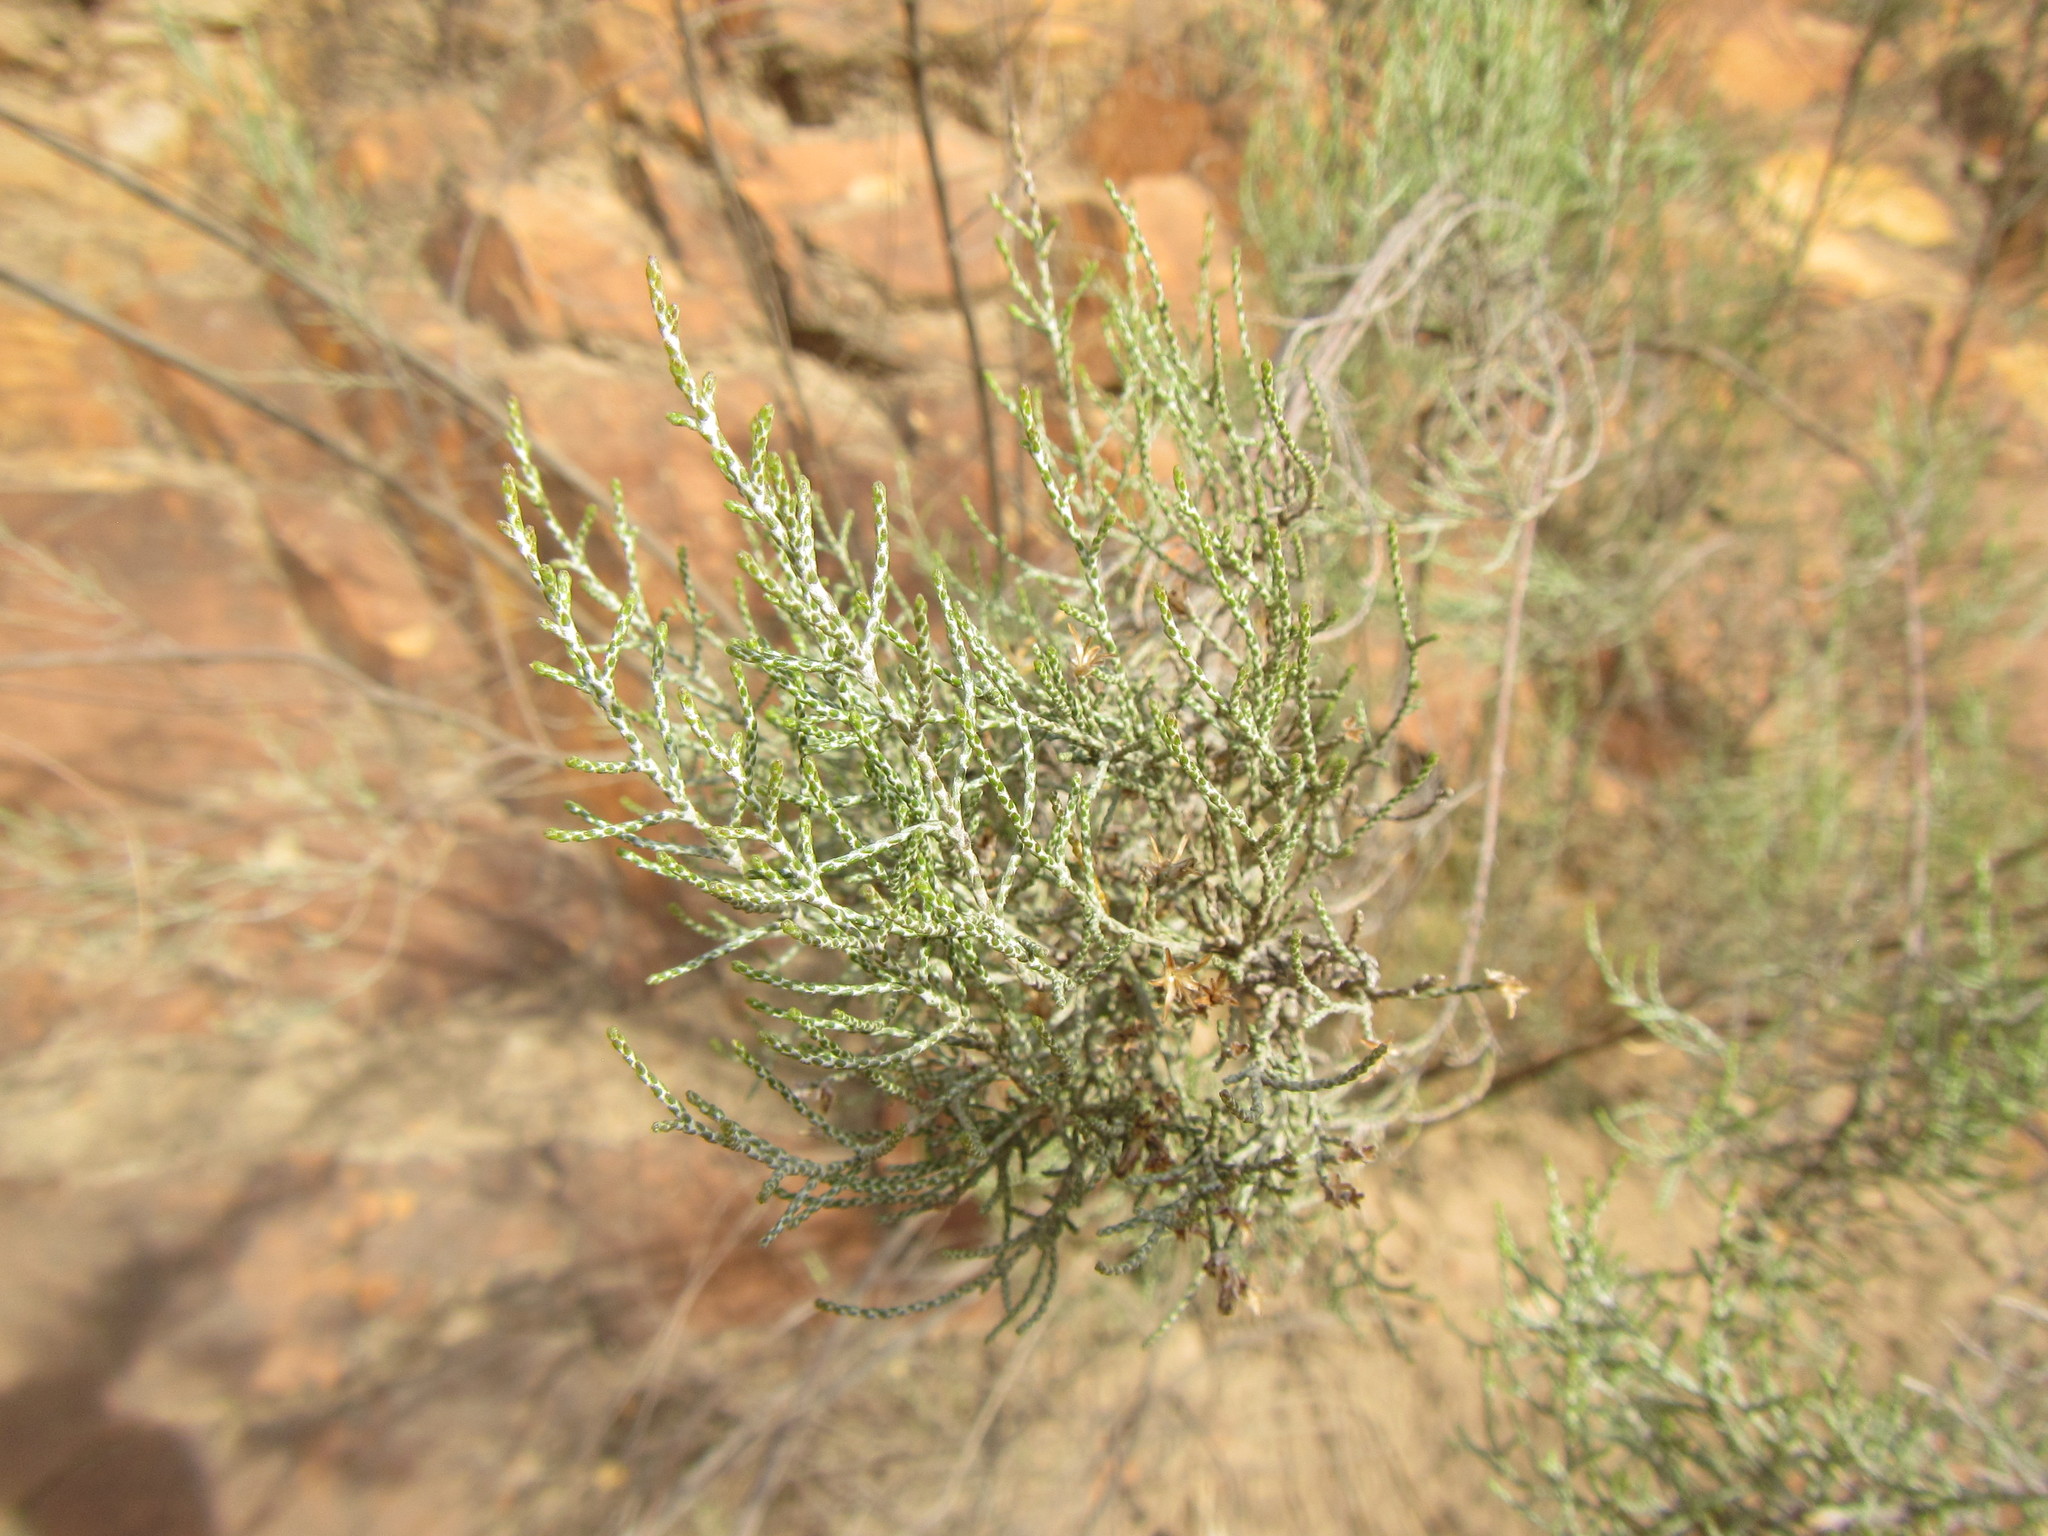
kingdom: Plantae
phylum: Tracheophyta
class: Magnoliopsida
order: Asterales
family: Asteraceae
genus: Dicerothamnus
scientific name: Dicerothamnus rhinocerotis
